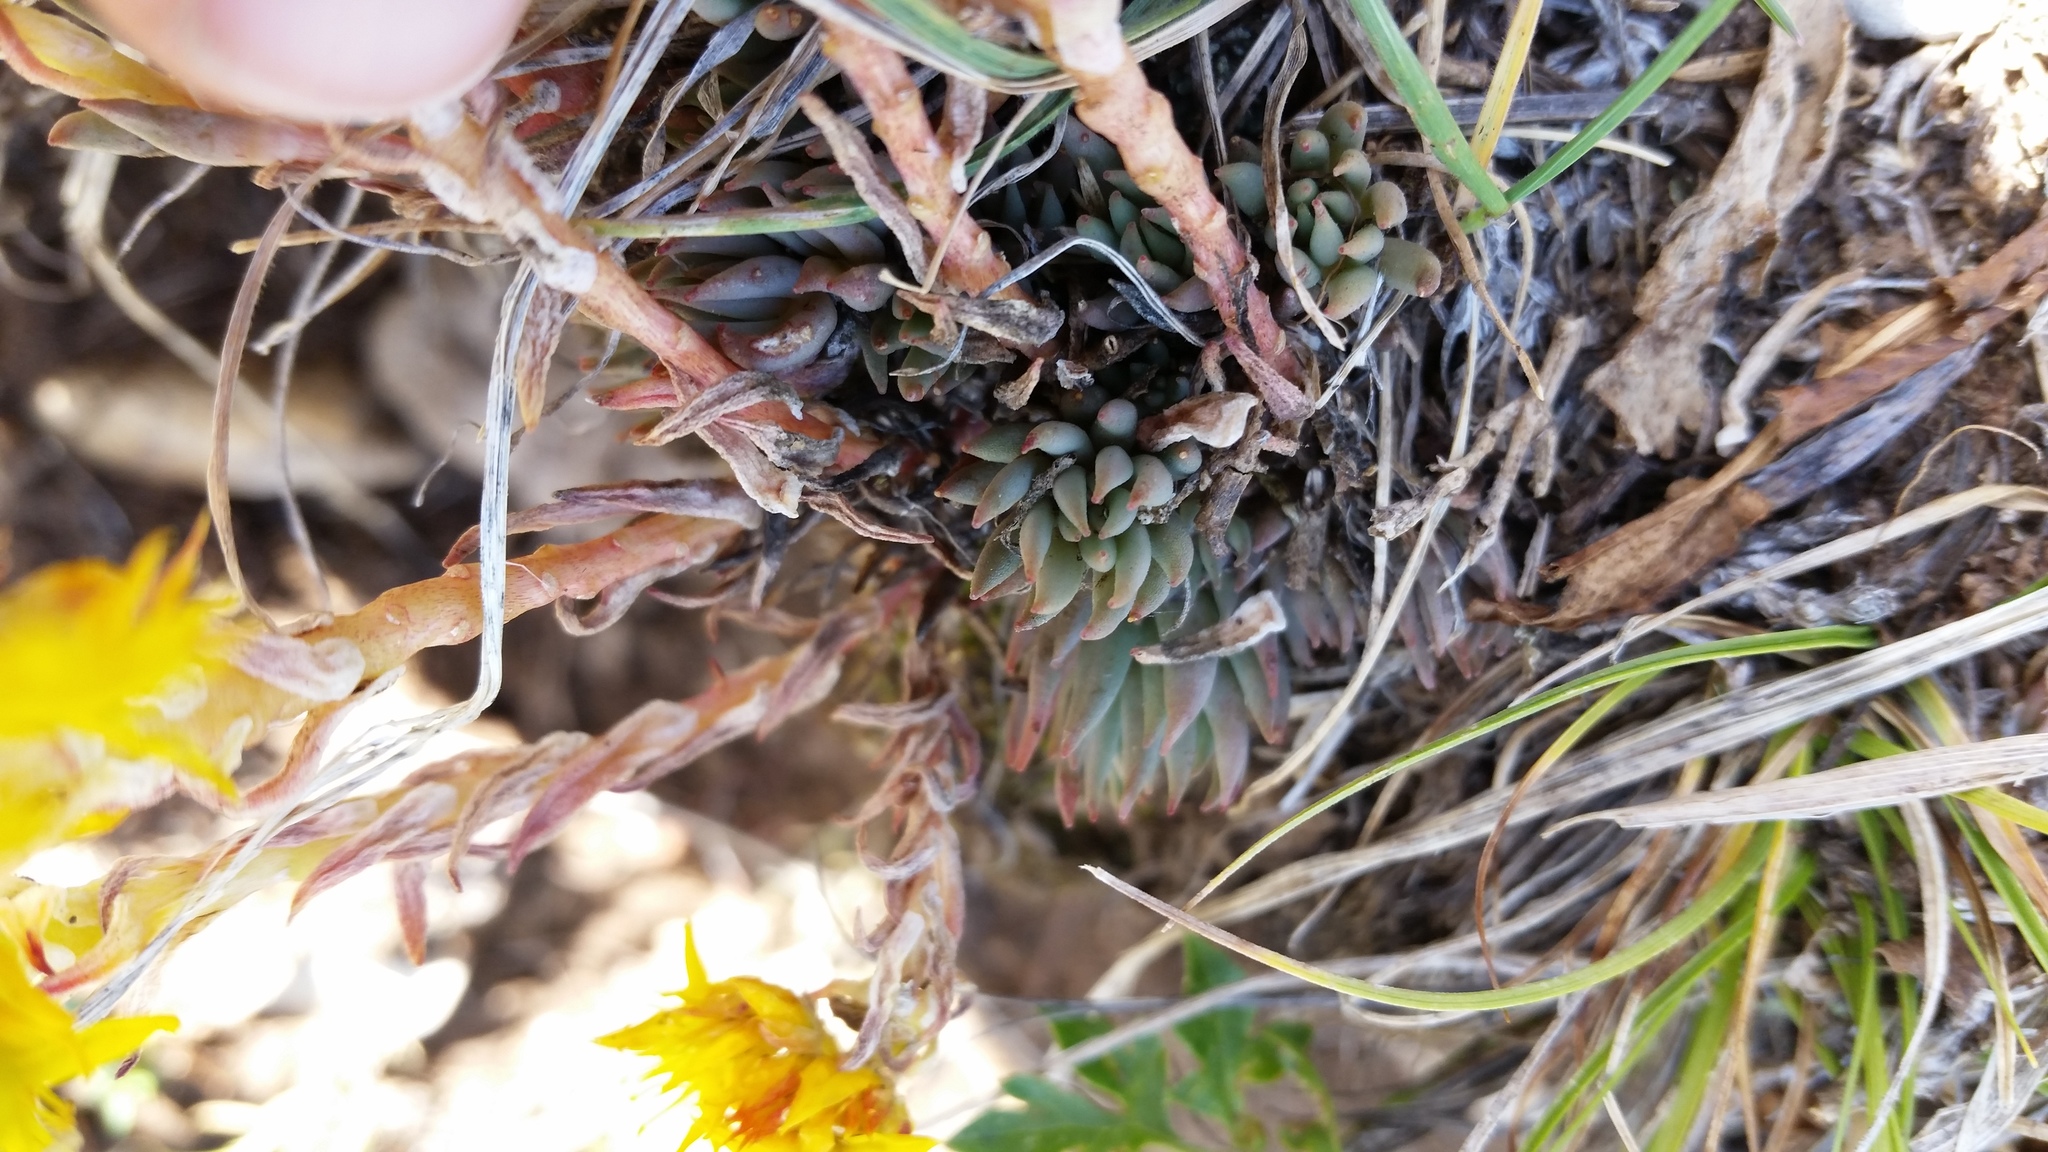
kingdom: Plantae
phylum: Tracheophyta
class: Magnoliopsida
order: Saxifragales
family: Crassulaceae
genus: Sedum
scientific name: Sedum lanceolatum
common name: Common stonecrop
